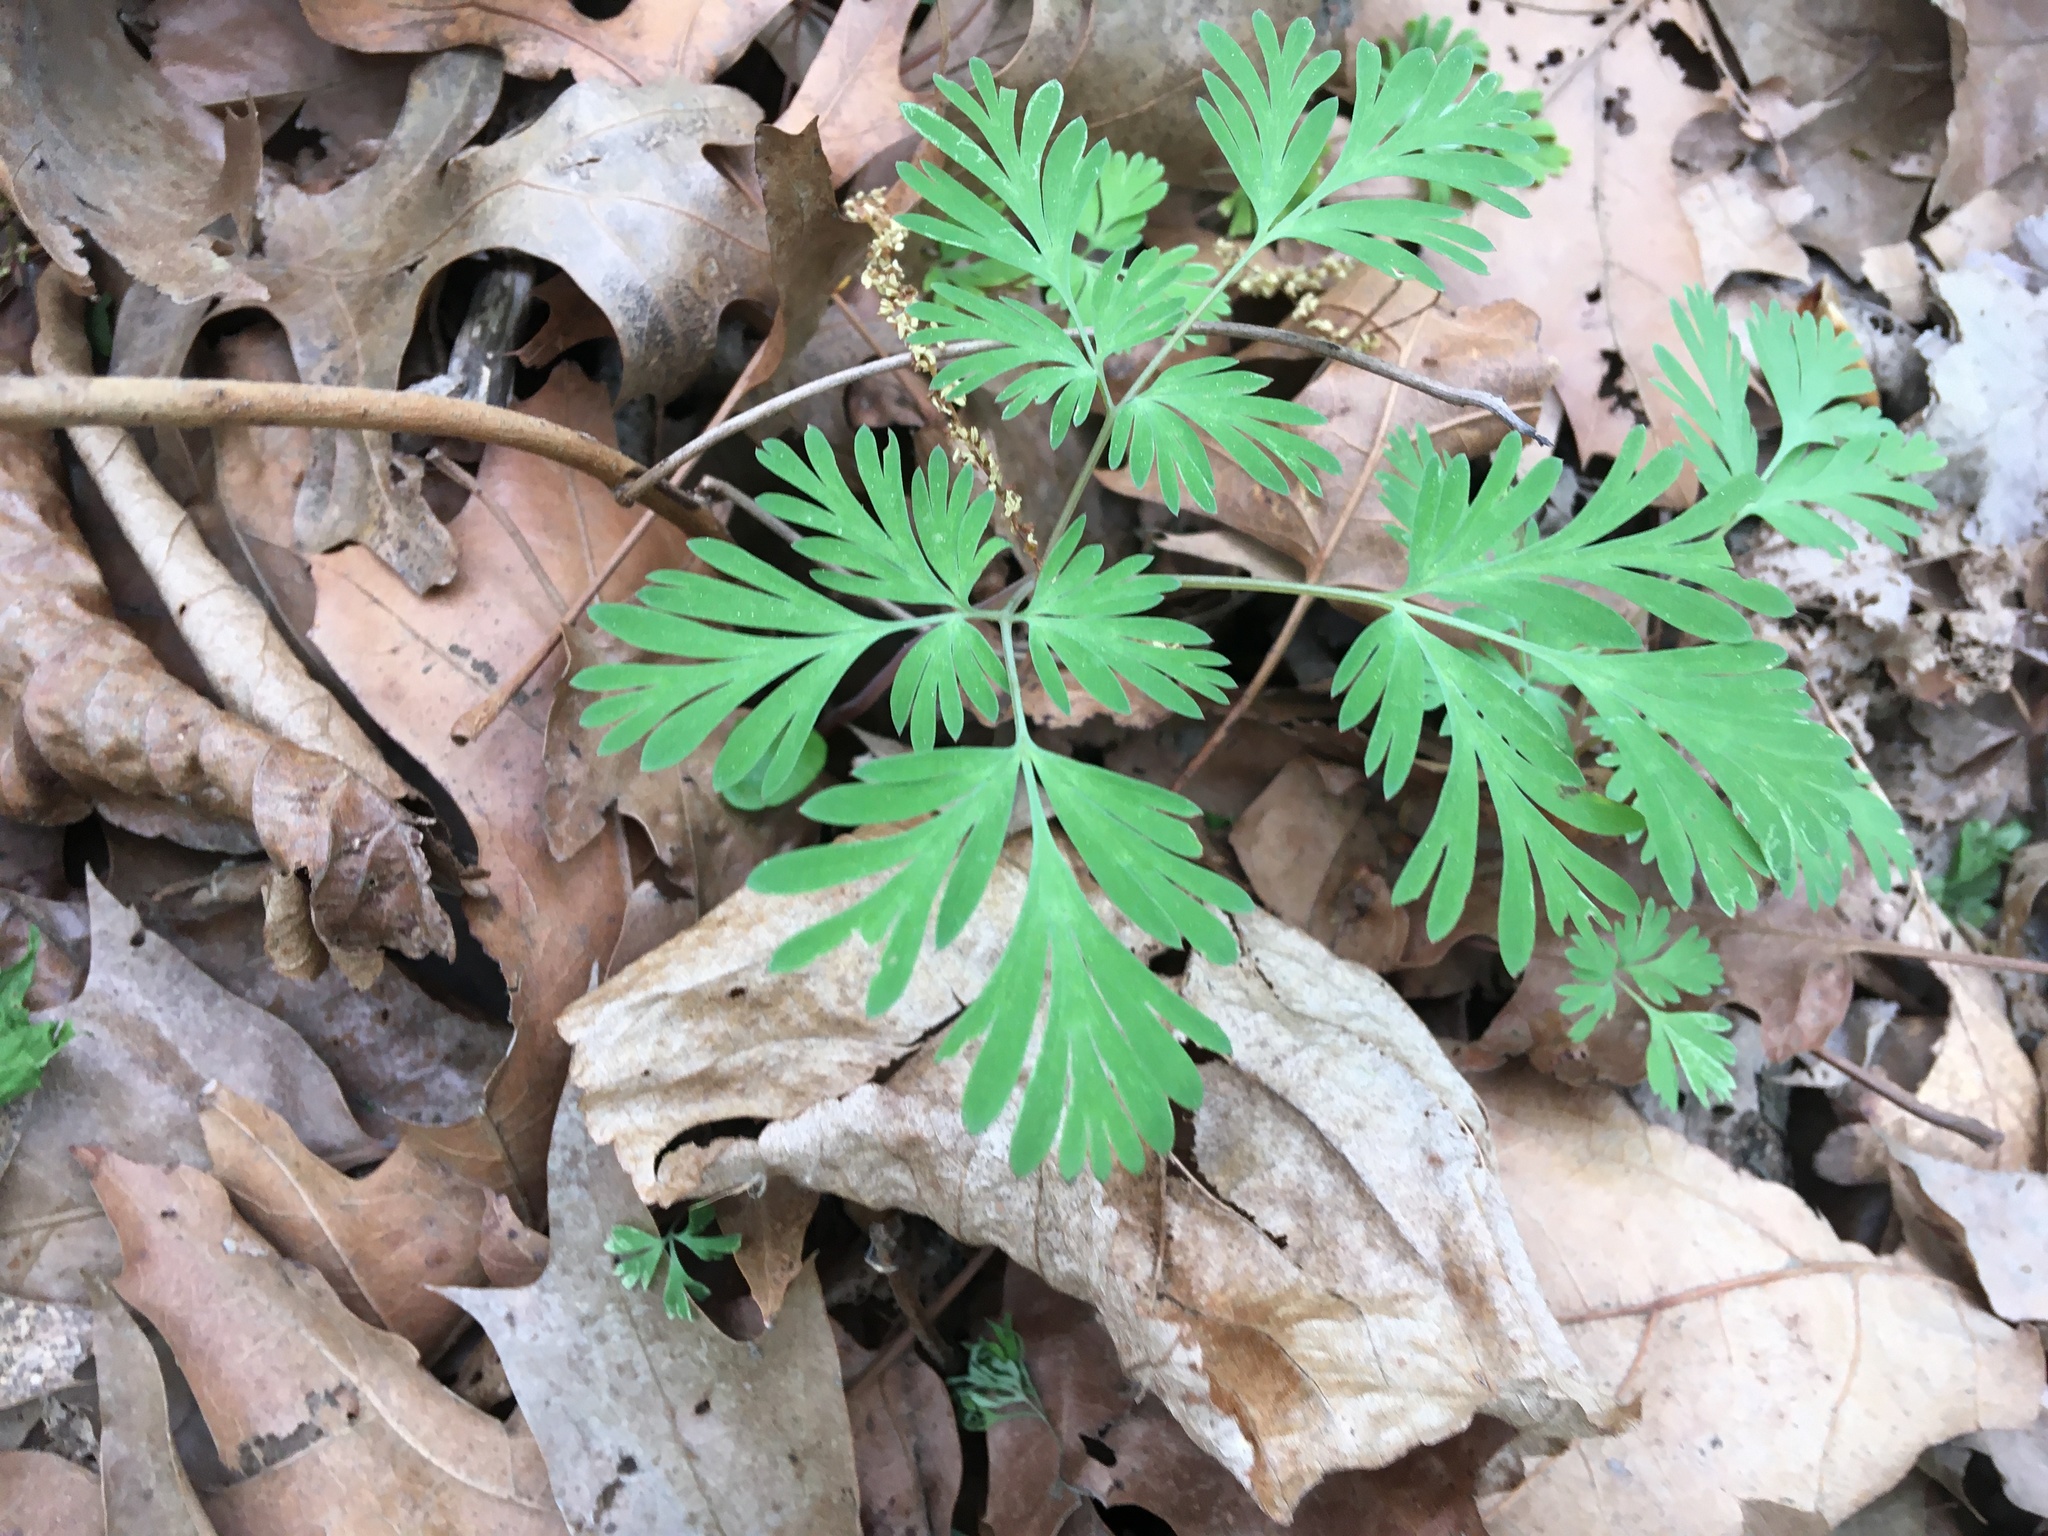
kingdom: Plantae
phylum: Tracheophyta
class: Magnoliopsida
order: Ranunculales
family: Papaveraceae
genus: Dicentra
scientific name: Dicentra cucullaria
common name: Dutchman's breeches
